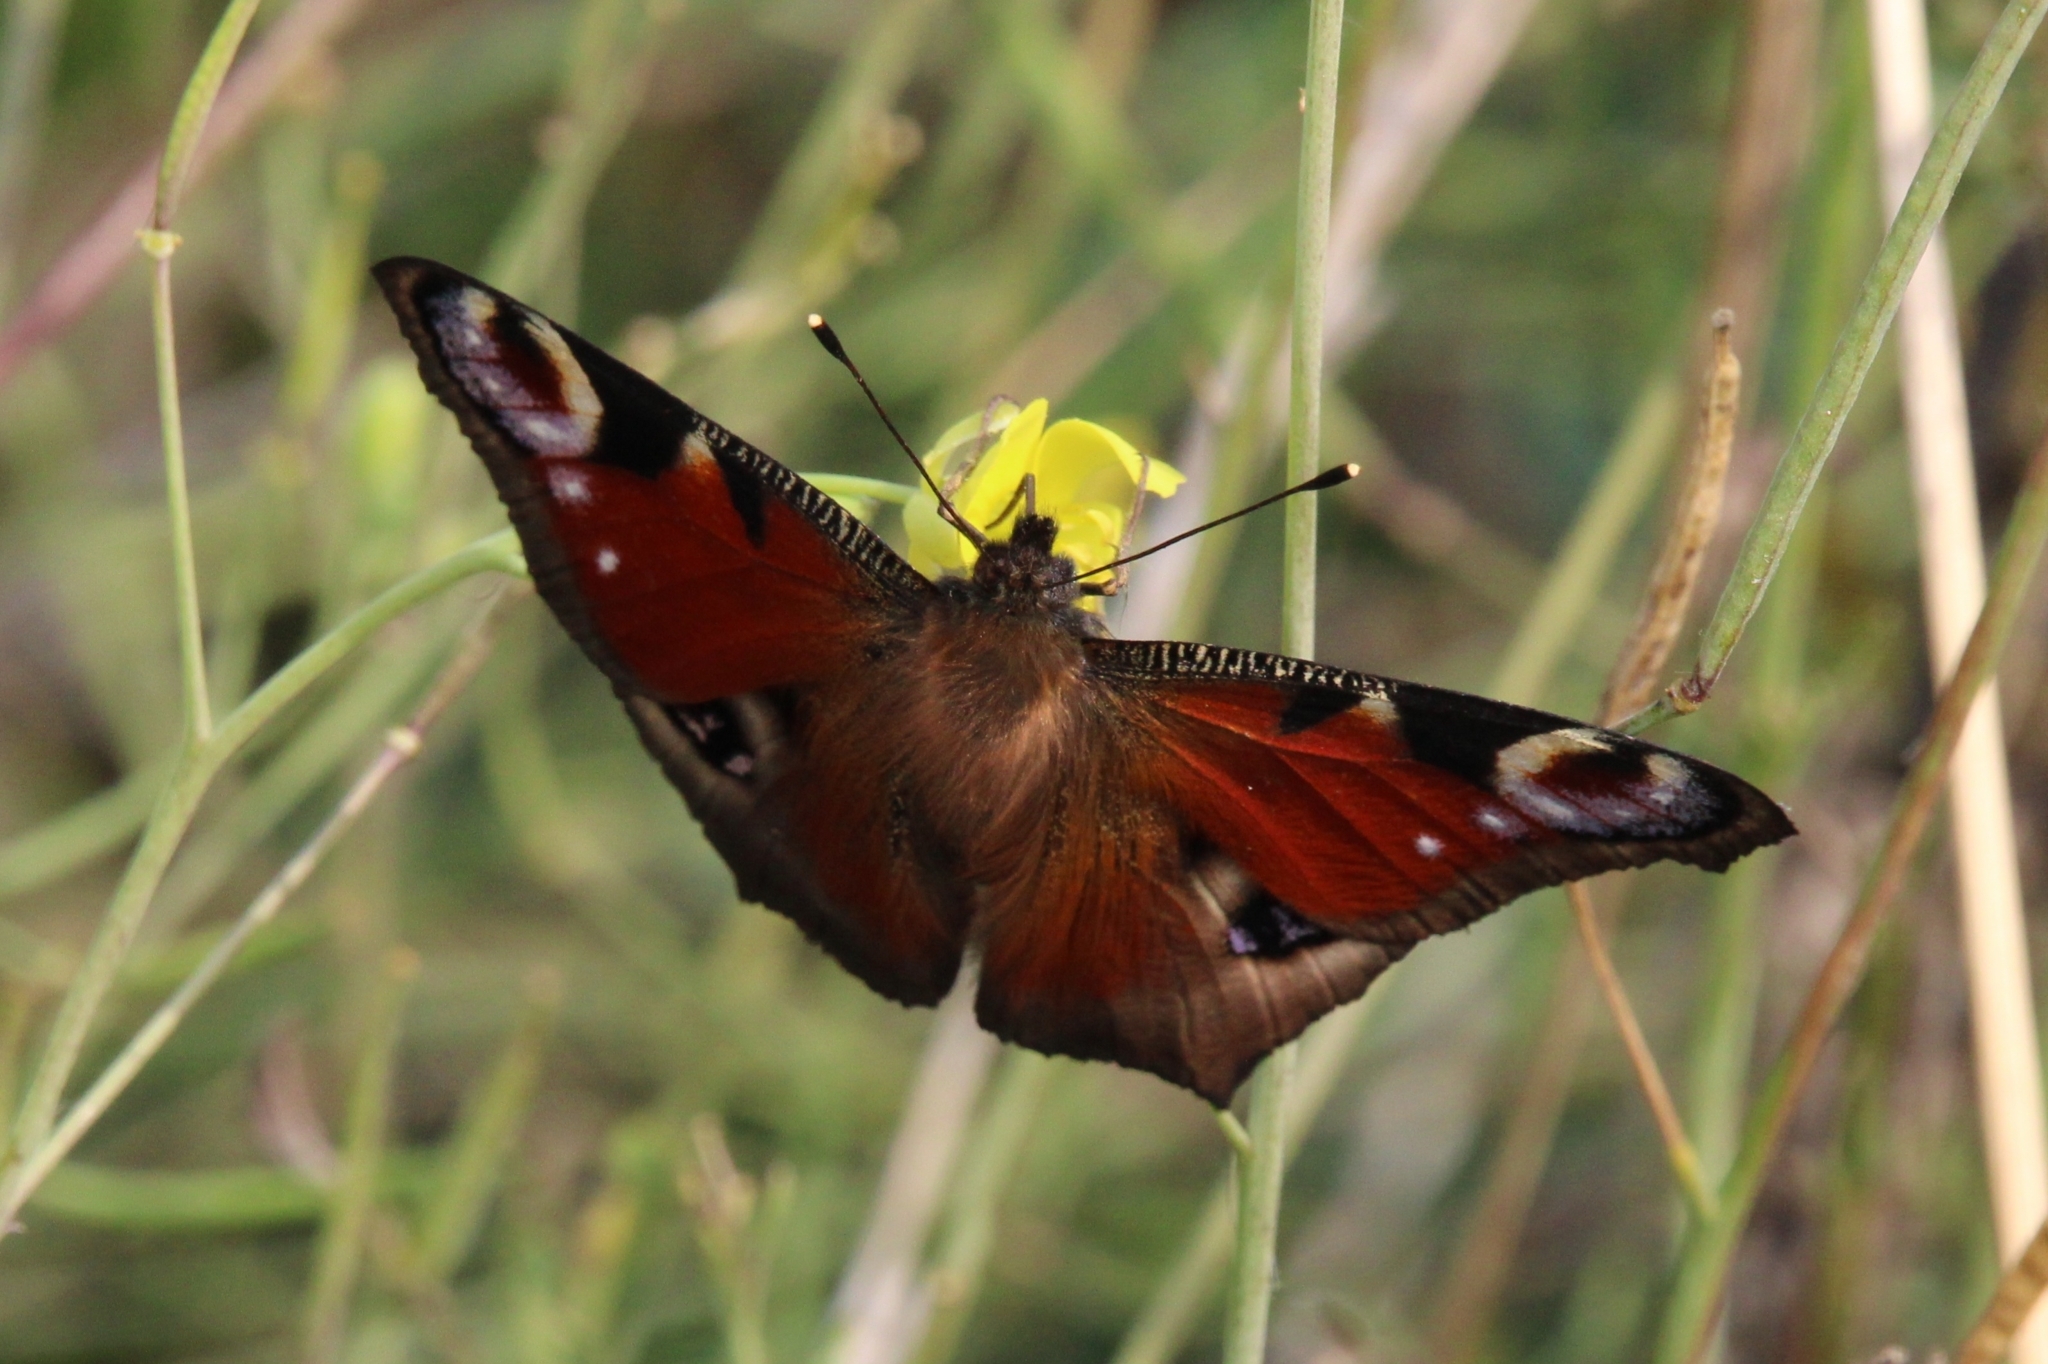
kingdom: Animalia
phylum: Arthropoda
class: Insecta
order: Lepidoptera
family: Nymphalidae
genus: Aglais
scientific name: Aglais io
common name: Peacock
